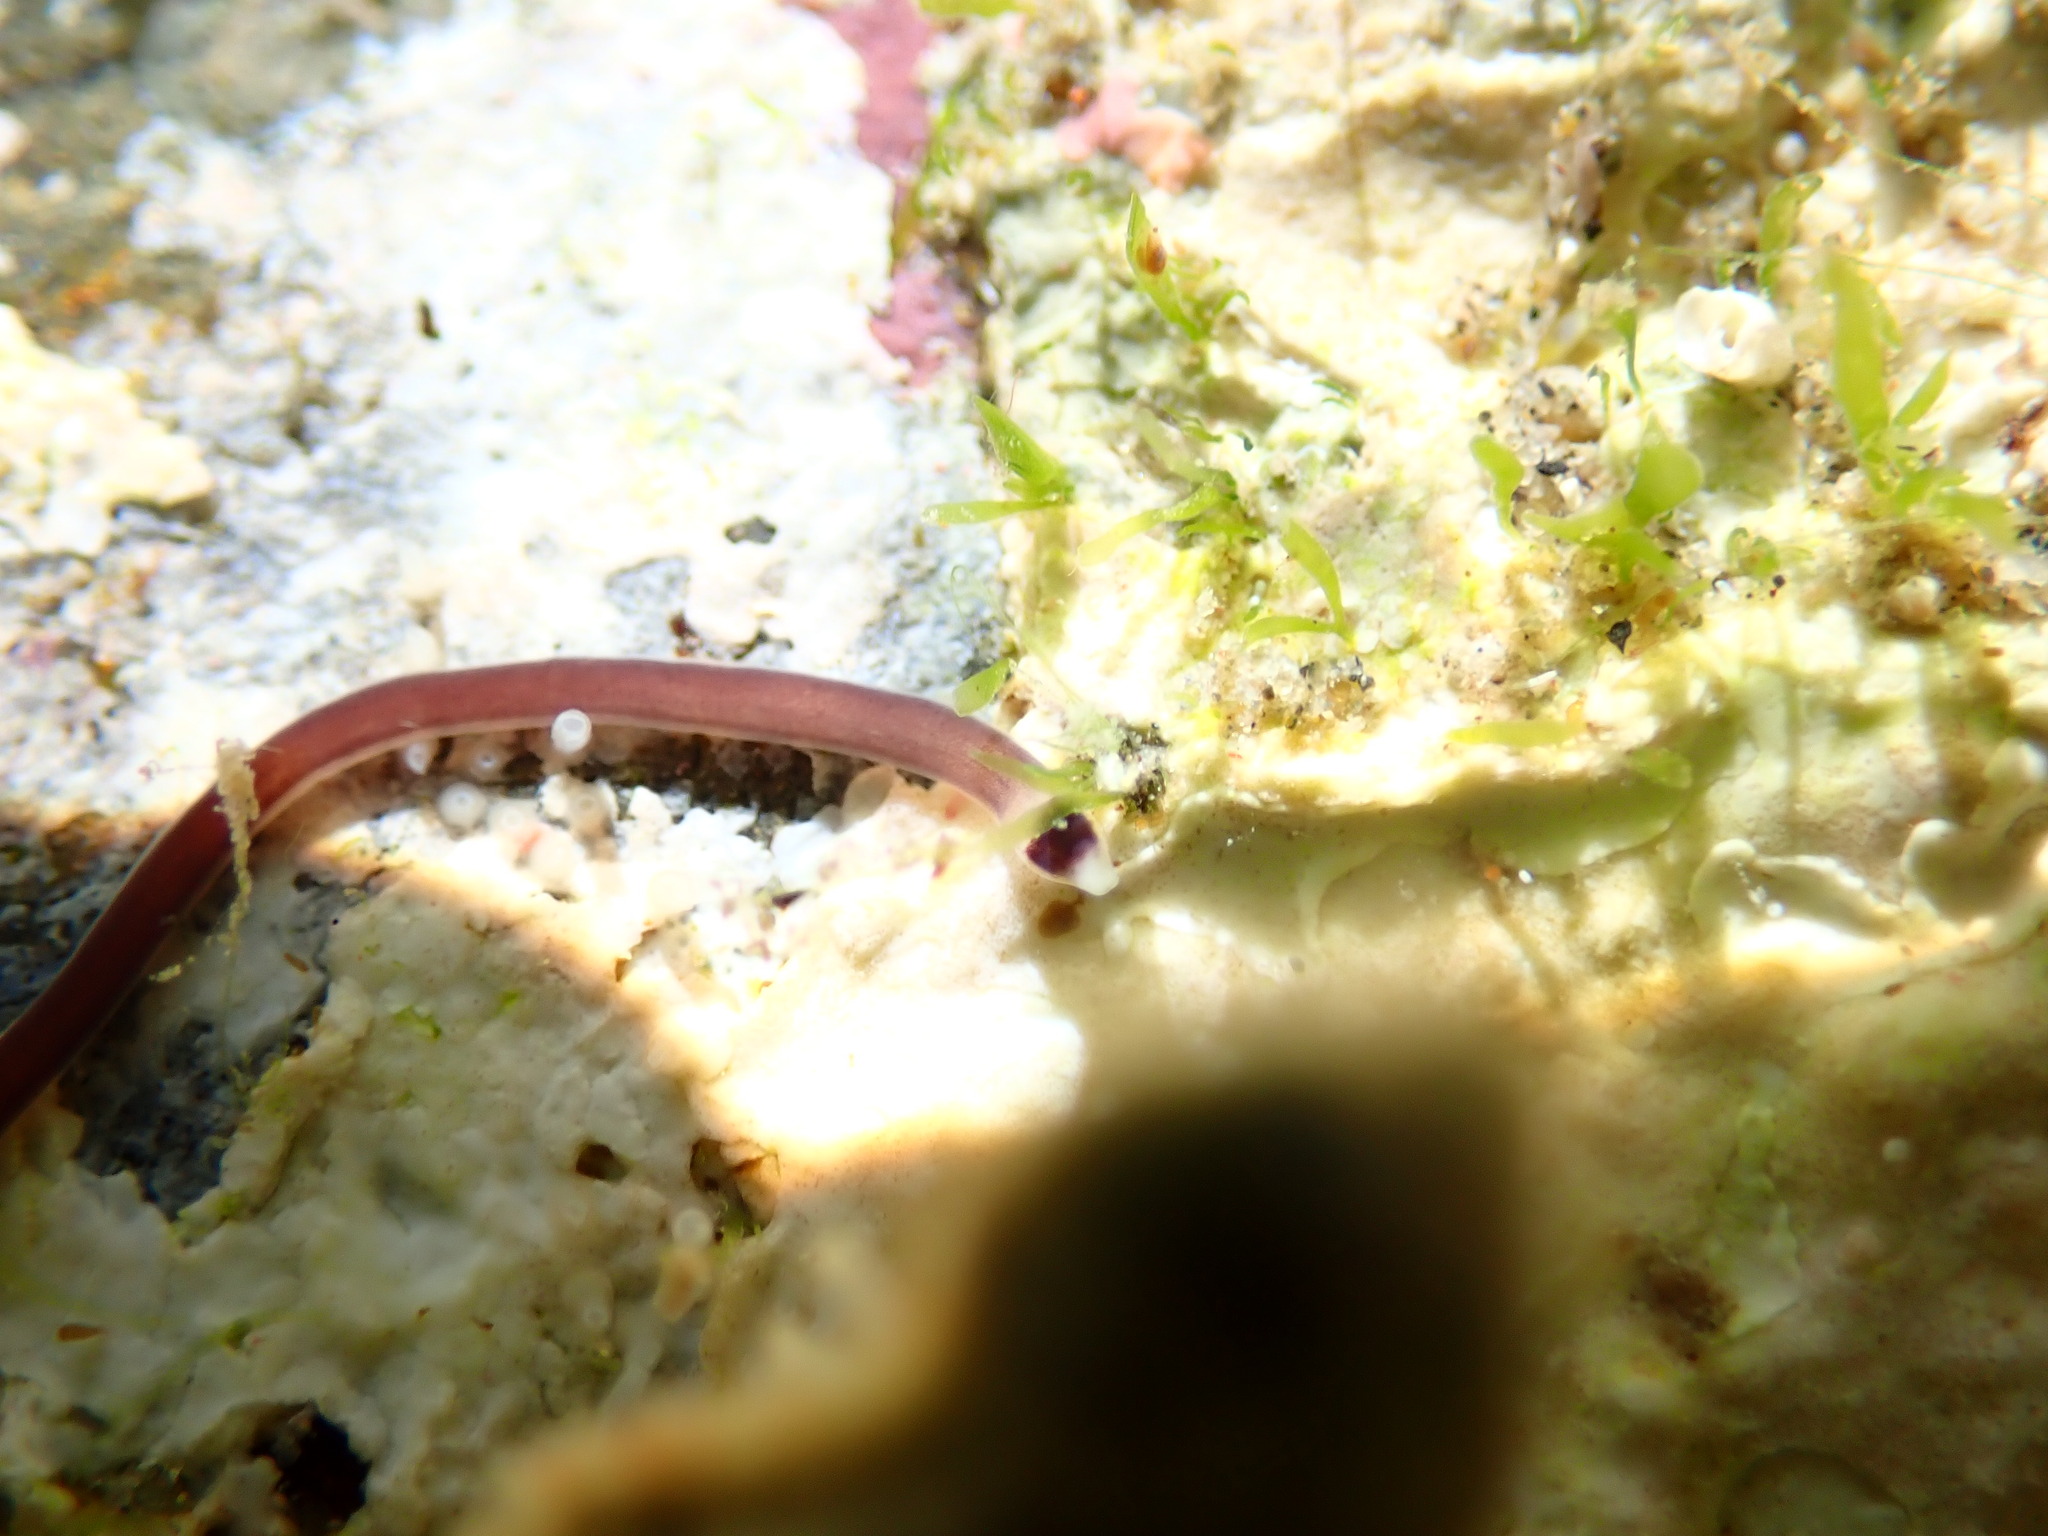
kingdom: Animalia
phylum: Nemertea
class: Hoplonemertea
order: Monostilifera
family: Neesiidae
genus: Noteonemertes
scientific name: Noteonemertes novaezealandiae
